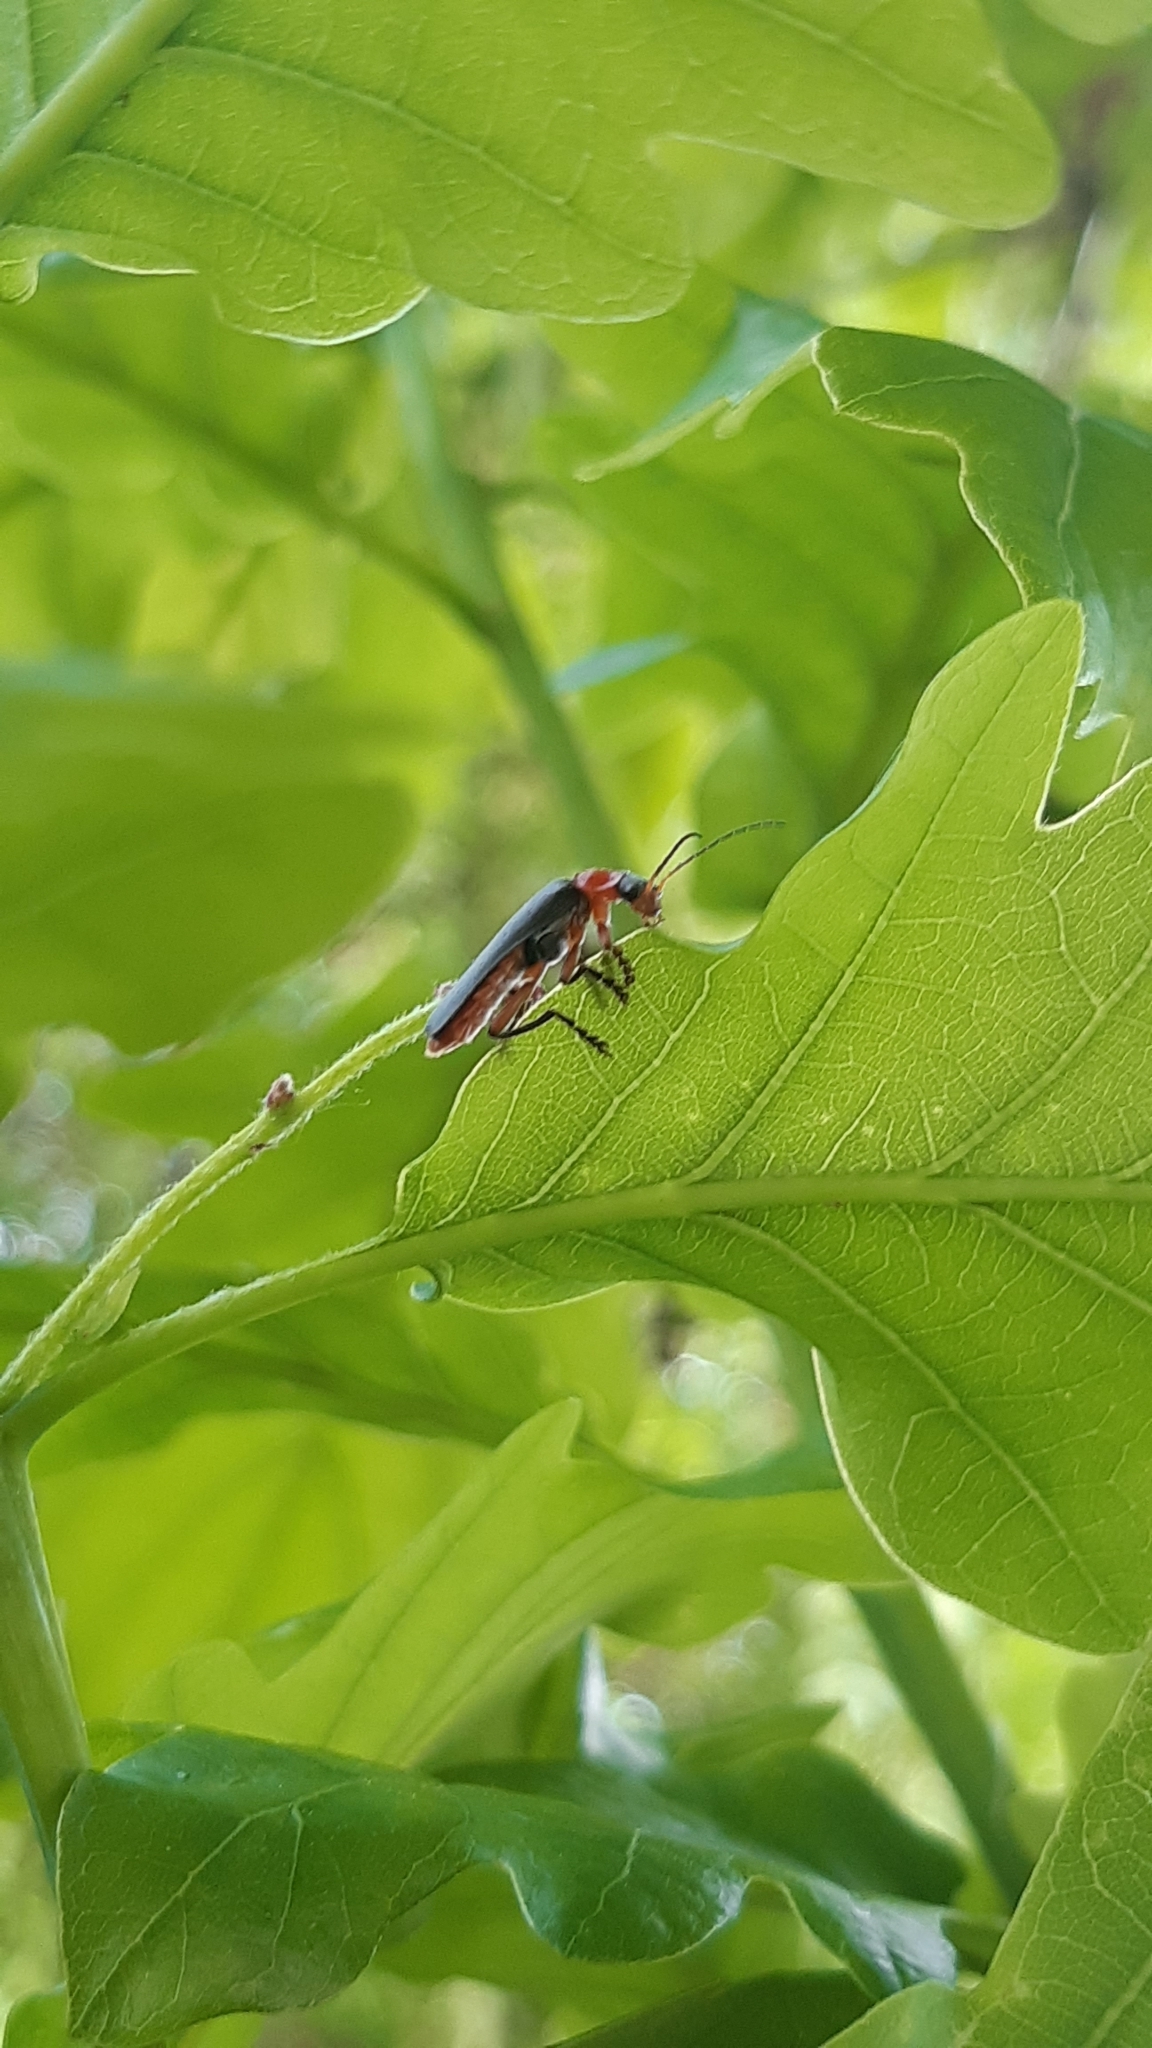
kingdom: Animalia
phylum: Arthropoda
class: Insecta
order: Coleoptera
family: Cantharidae
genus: Cantharis
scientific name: Cantharis pellucida
